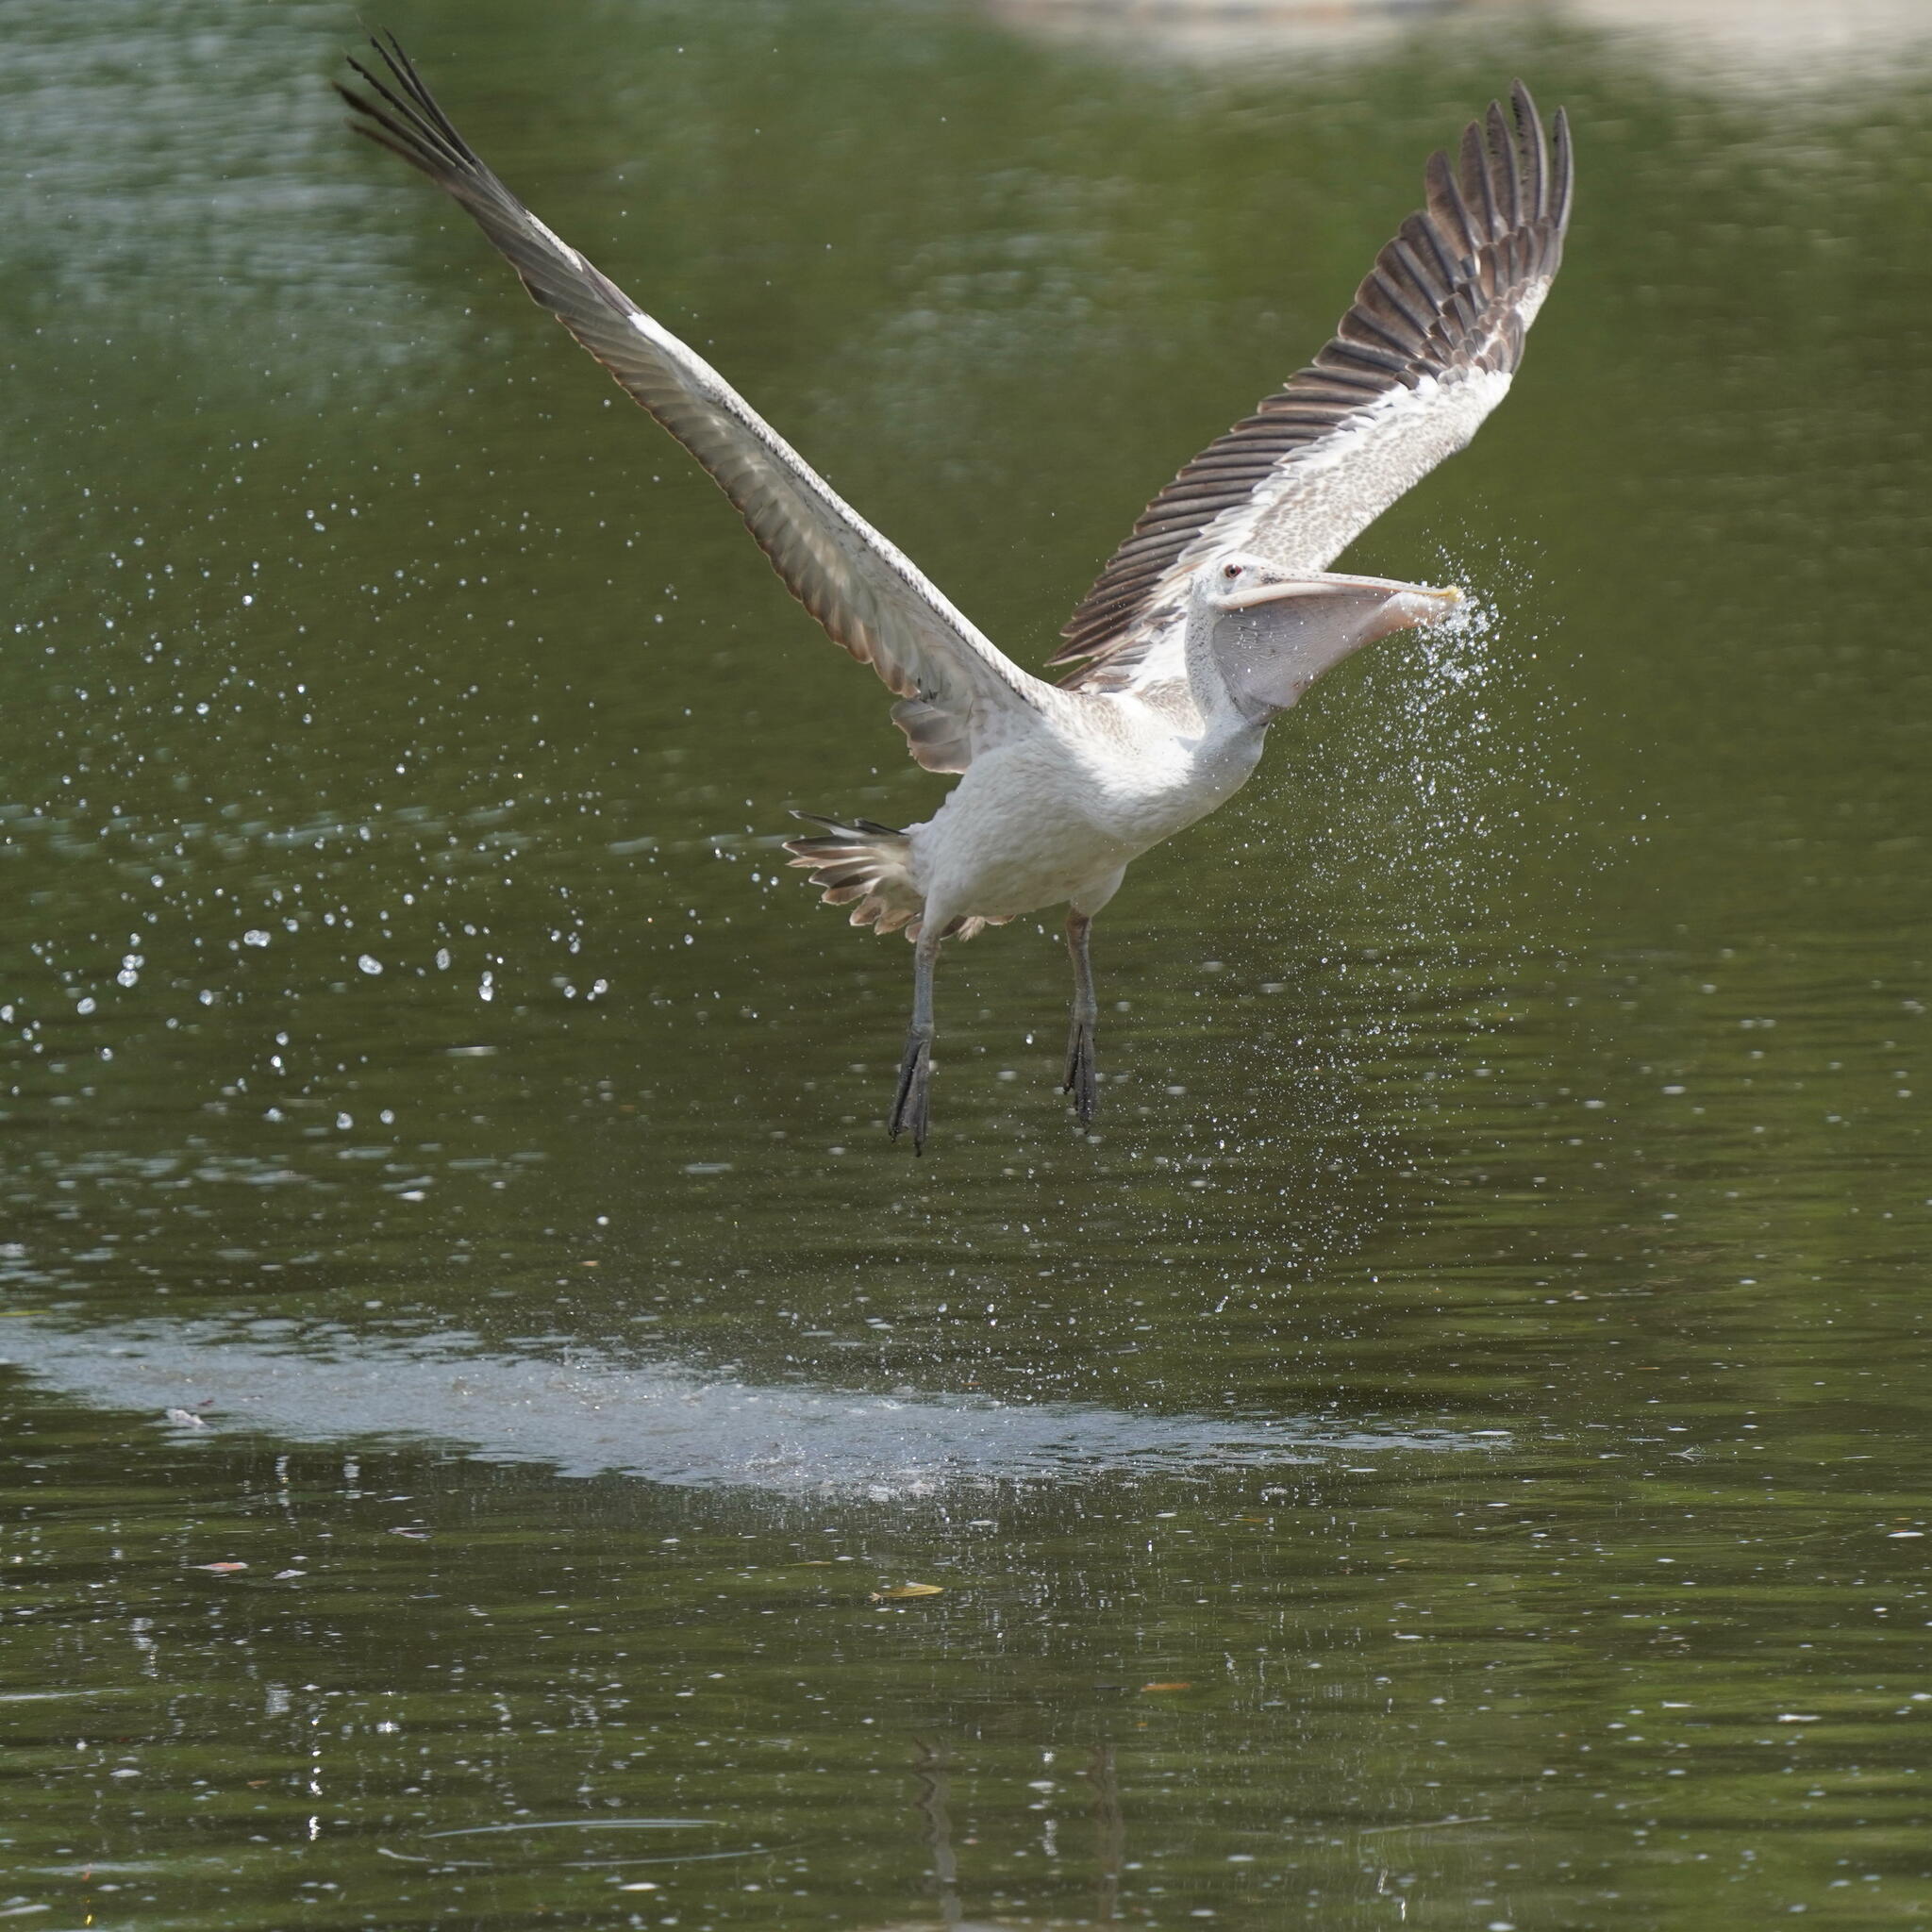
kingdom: Animalia
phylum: Chordata
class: Aves
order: Pelecaniformes
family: Pelecanidae
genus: Pelecanus
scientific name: Pelecanus philippensis
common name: Spot-billed pelican
